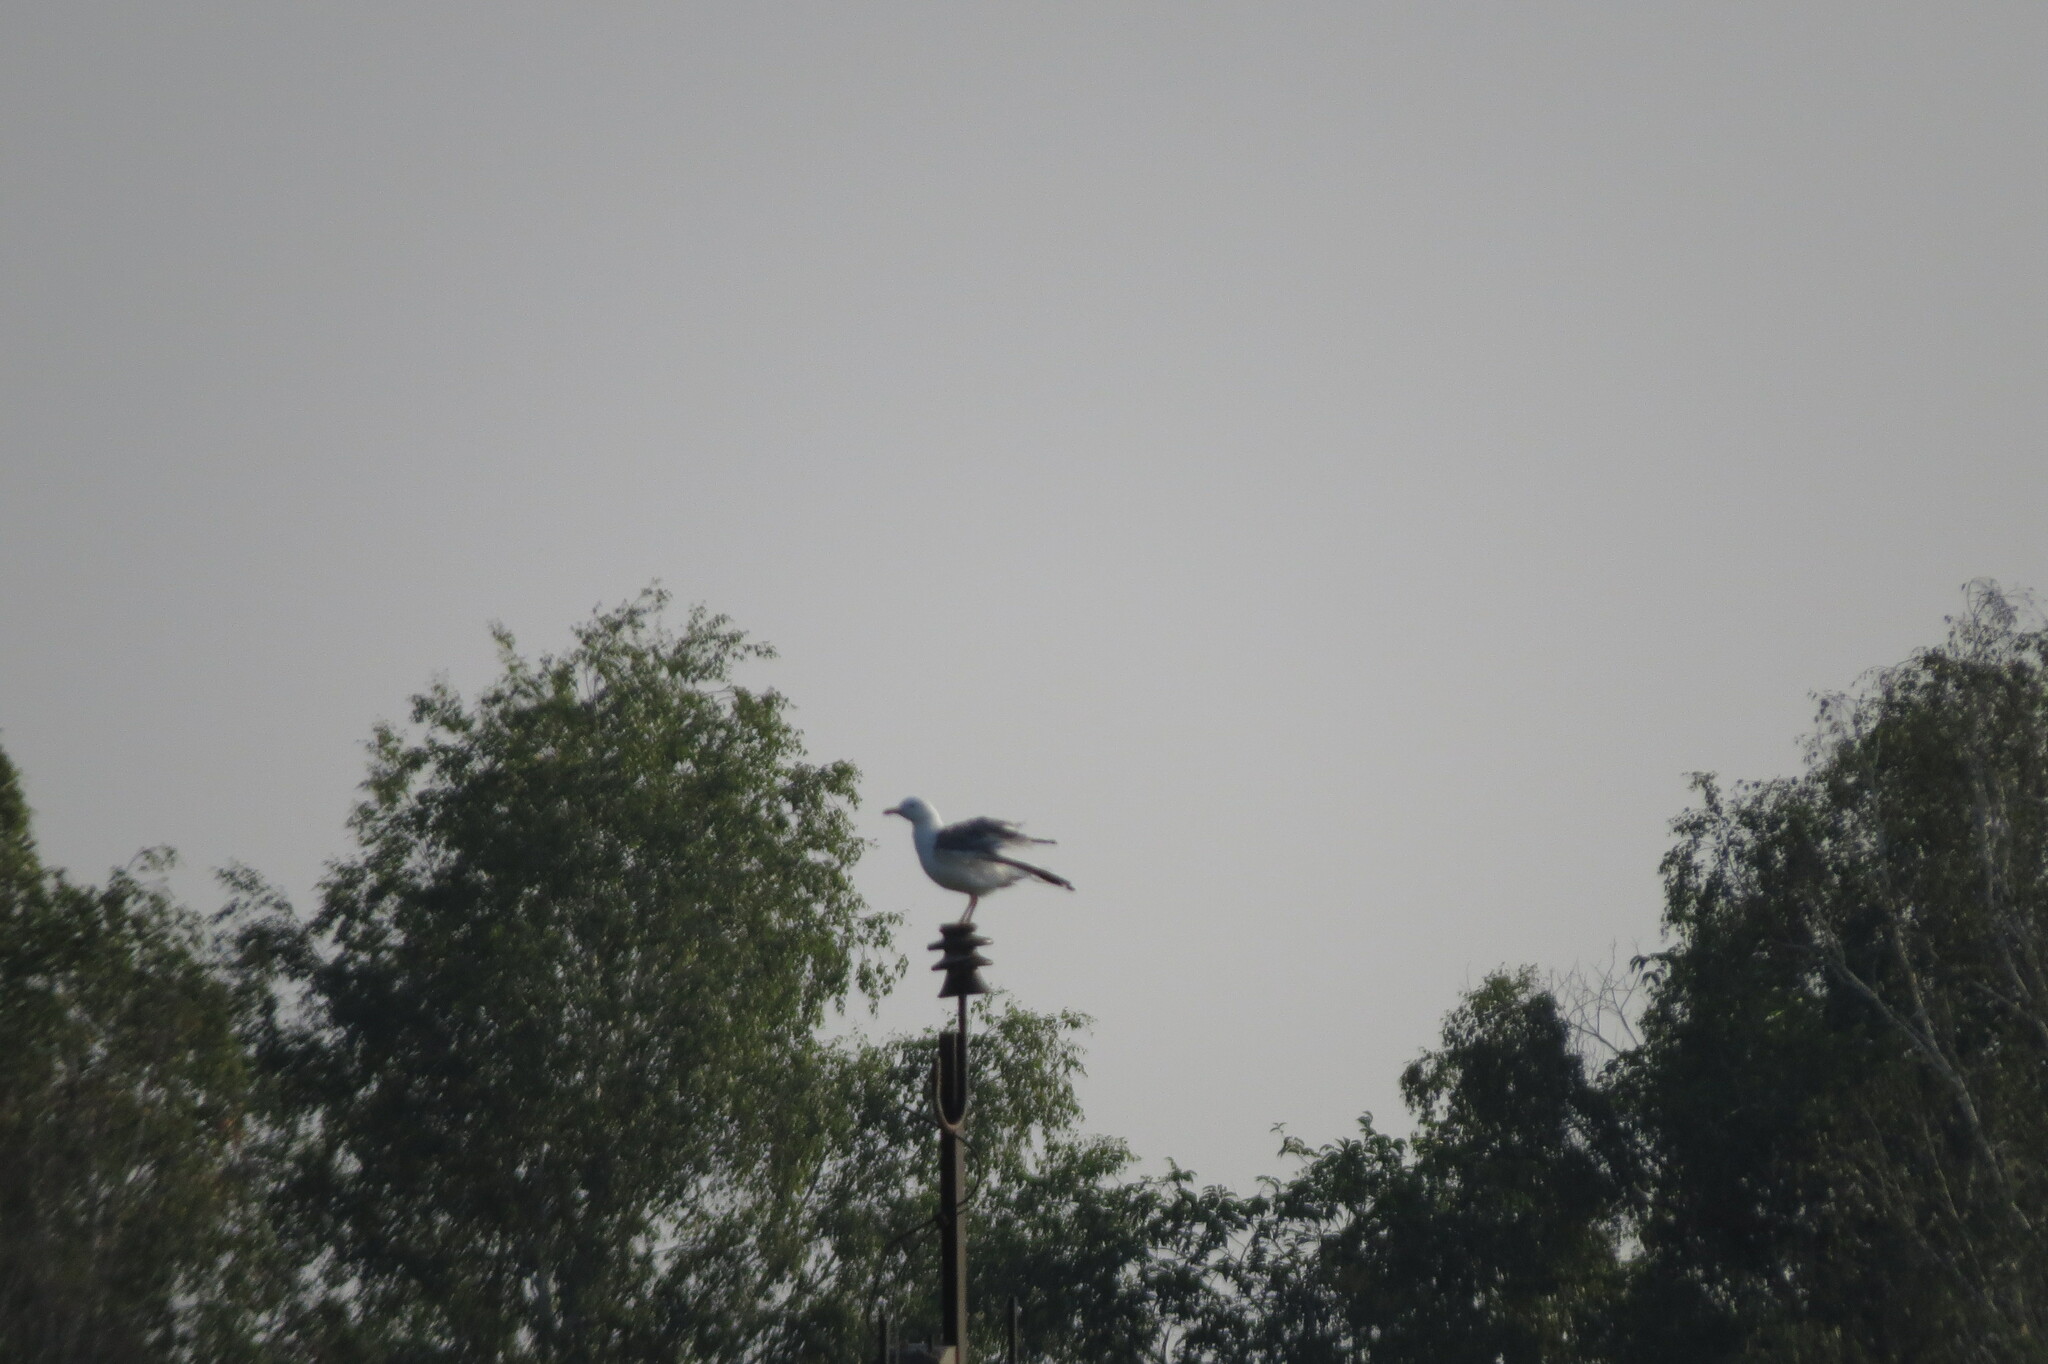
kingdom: Animalia
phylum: Chordata
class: Aves
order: Charadriiformes
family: Laridae
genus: Larus
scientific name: Larus fuscus
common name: Lesser black-backed gull
